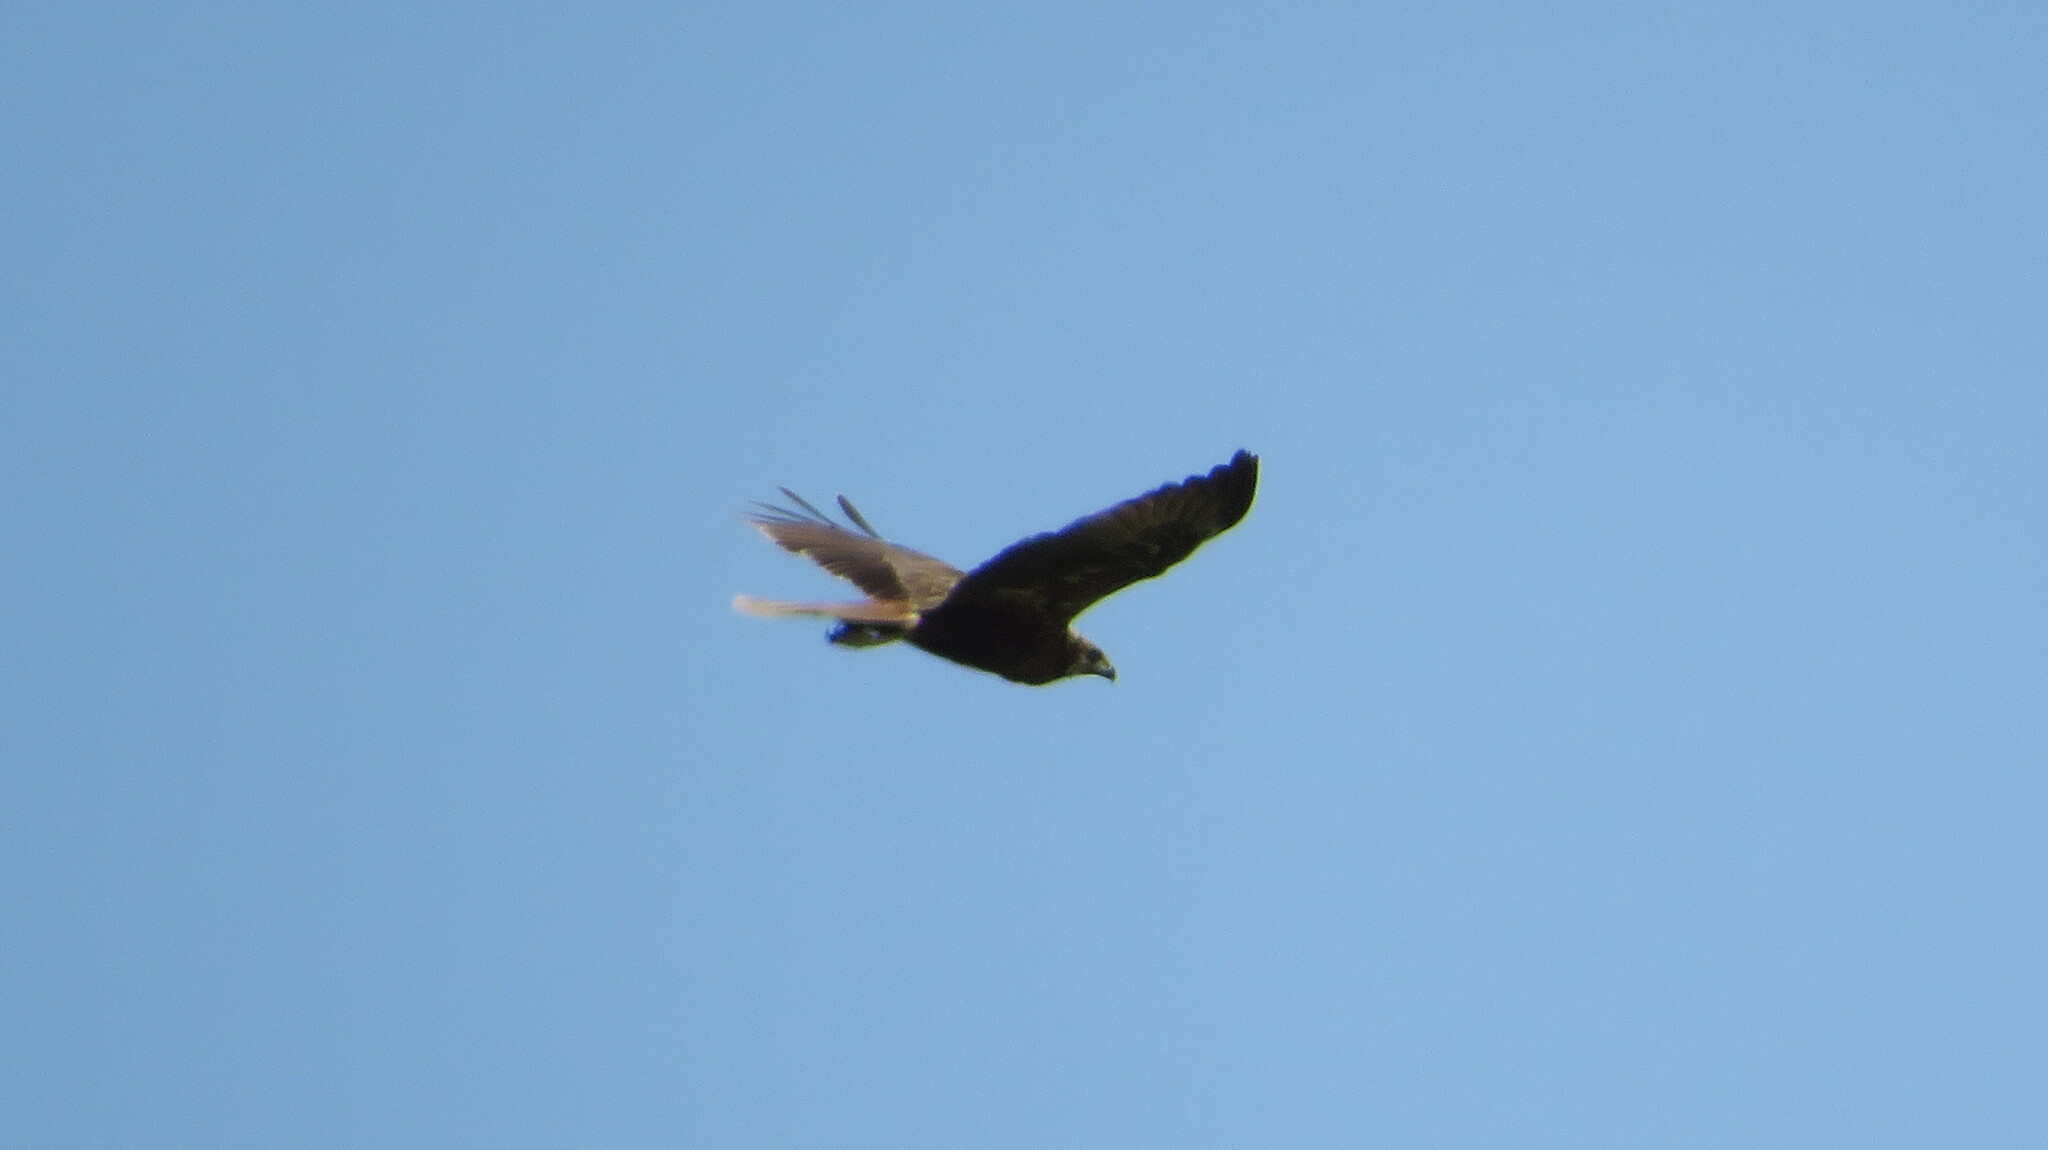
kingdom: Animalia
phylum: Chordata
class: Aves
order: Accipitriformes
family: Accipitridae
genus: Circus
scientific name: Circus aeruginosus
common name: Western marsh harrier
